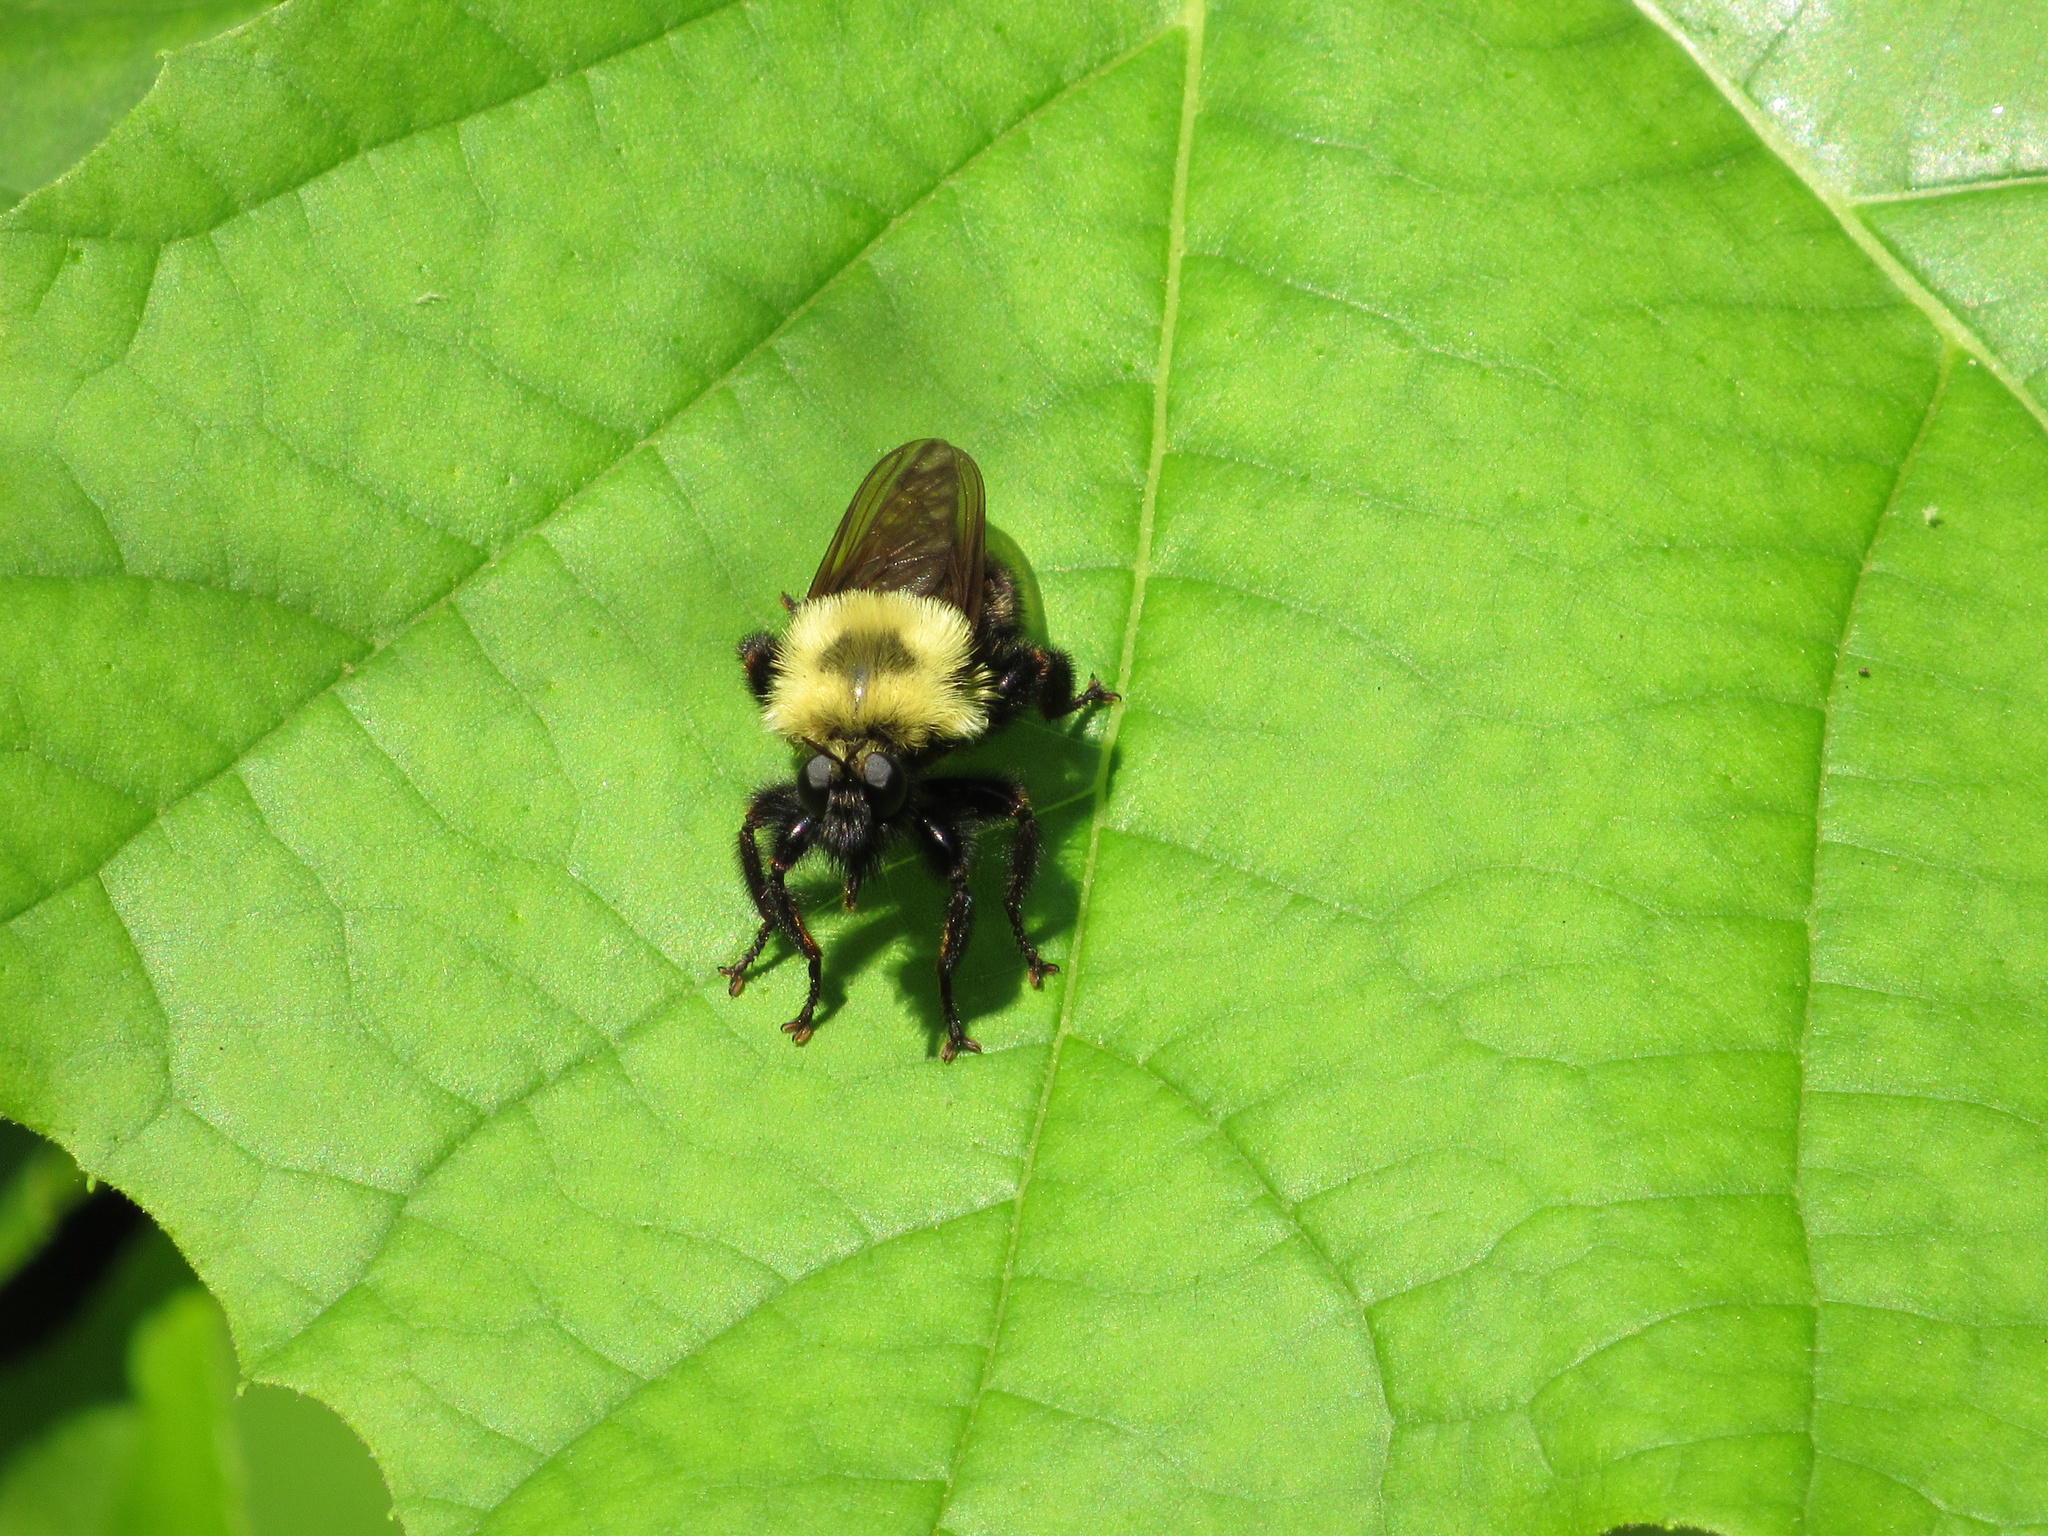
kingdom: Animalia
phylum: Arthropoda
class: Insecta
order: Diptera
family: Asilidae
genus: Laphria
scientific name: Laphria thoracica
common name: Bumble bee mimic robber fly
